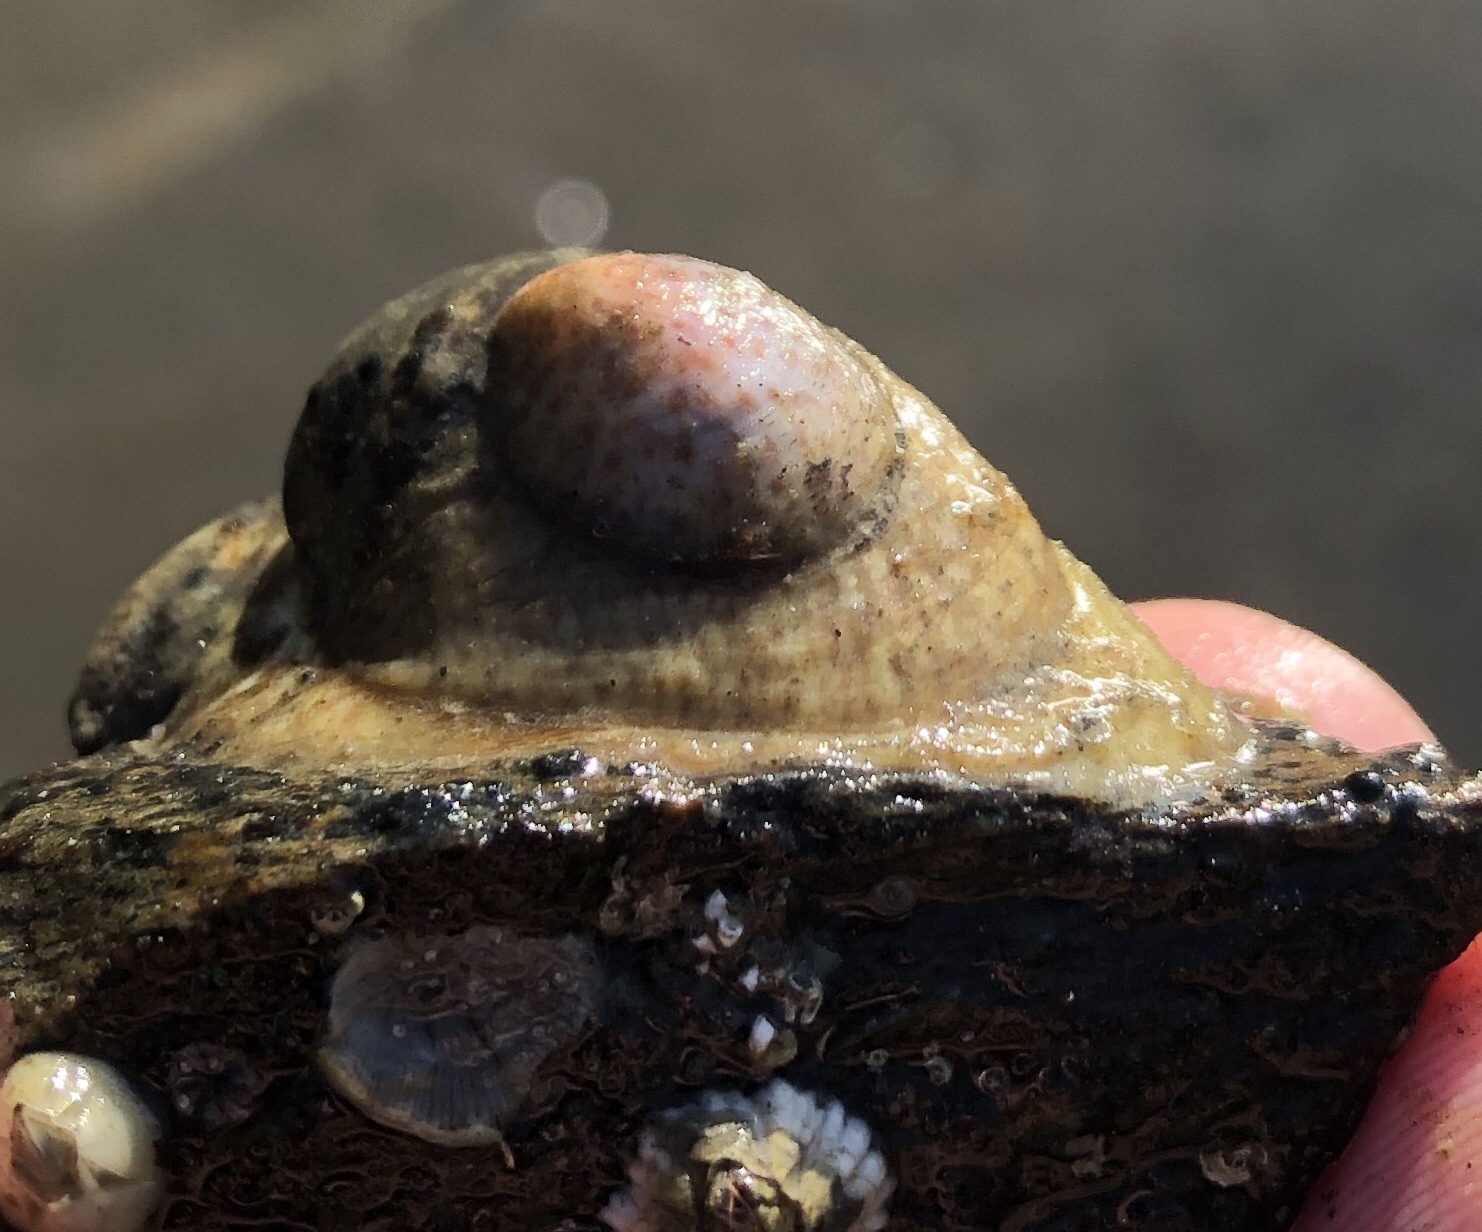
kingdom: Animalia
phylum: Mollusca
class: Gastropoda
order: Littorinimorpha
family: Calyptraeidae
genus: Crepidula
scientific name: Crepidula fornicata
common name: Slipper limpet
